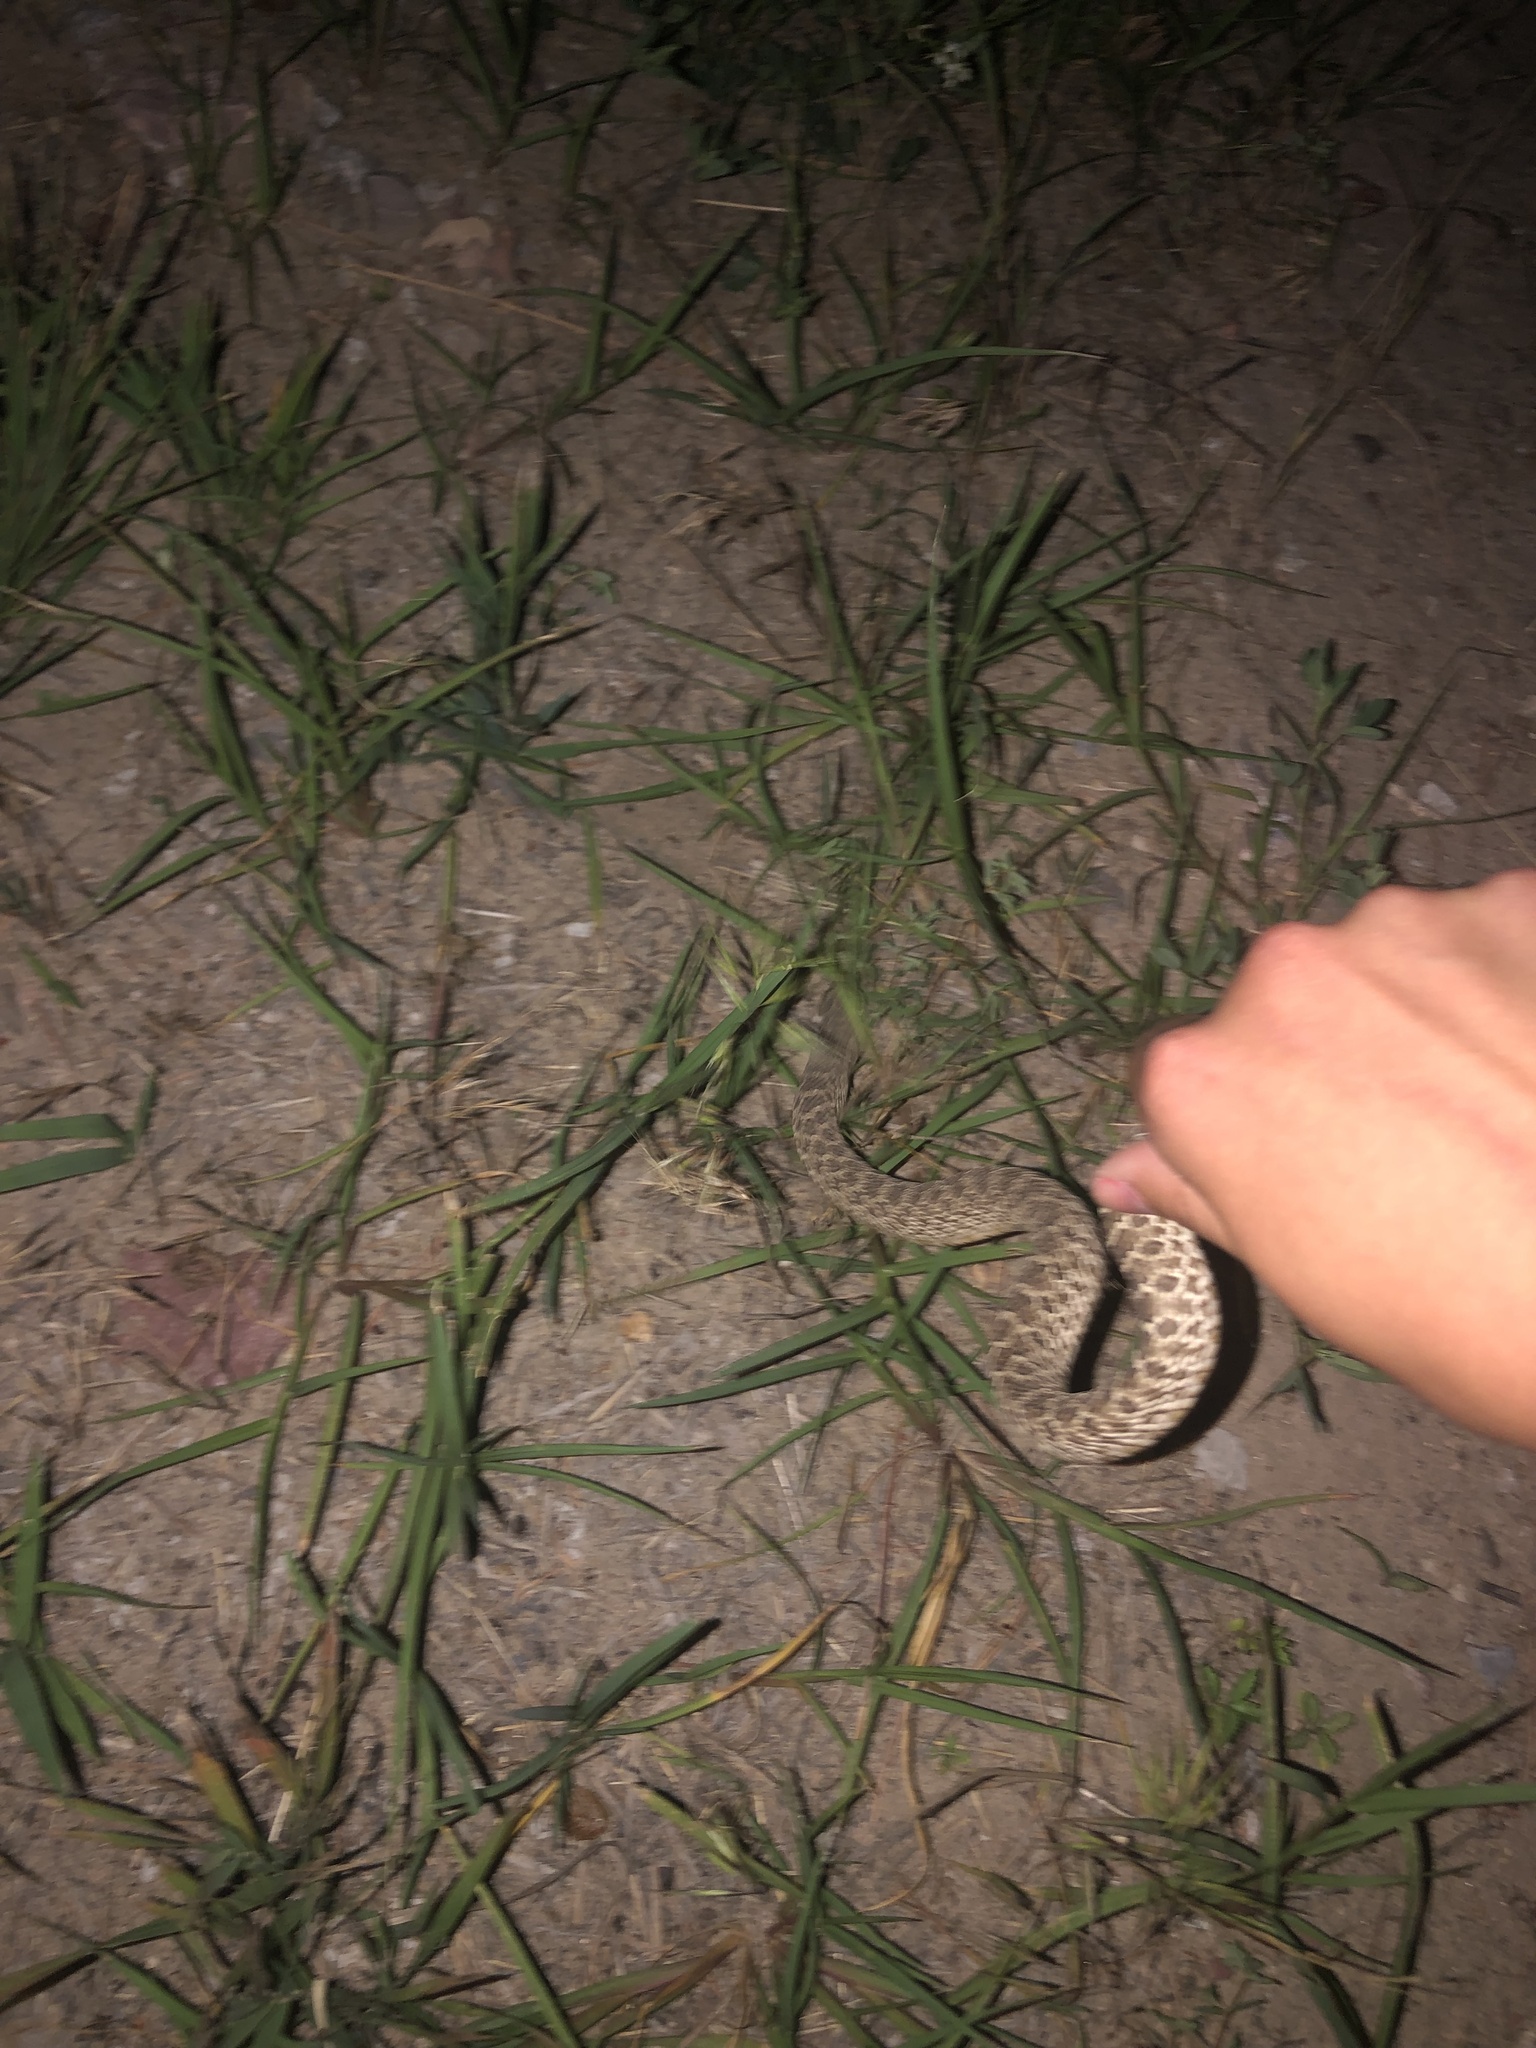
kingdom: Animalia
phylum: Chordata
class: Squamata
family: Colubridae
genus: Heterodon
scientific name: Heterodon nasicus
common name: Western hognose snake
